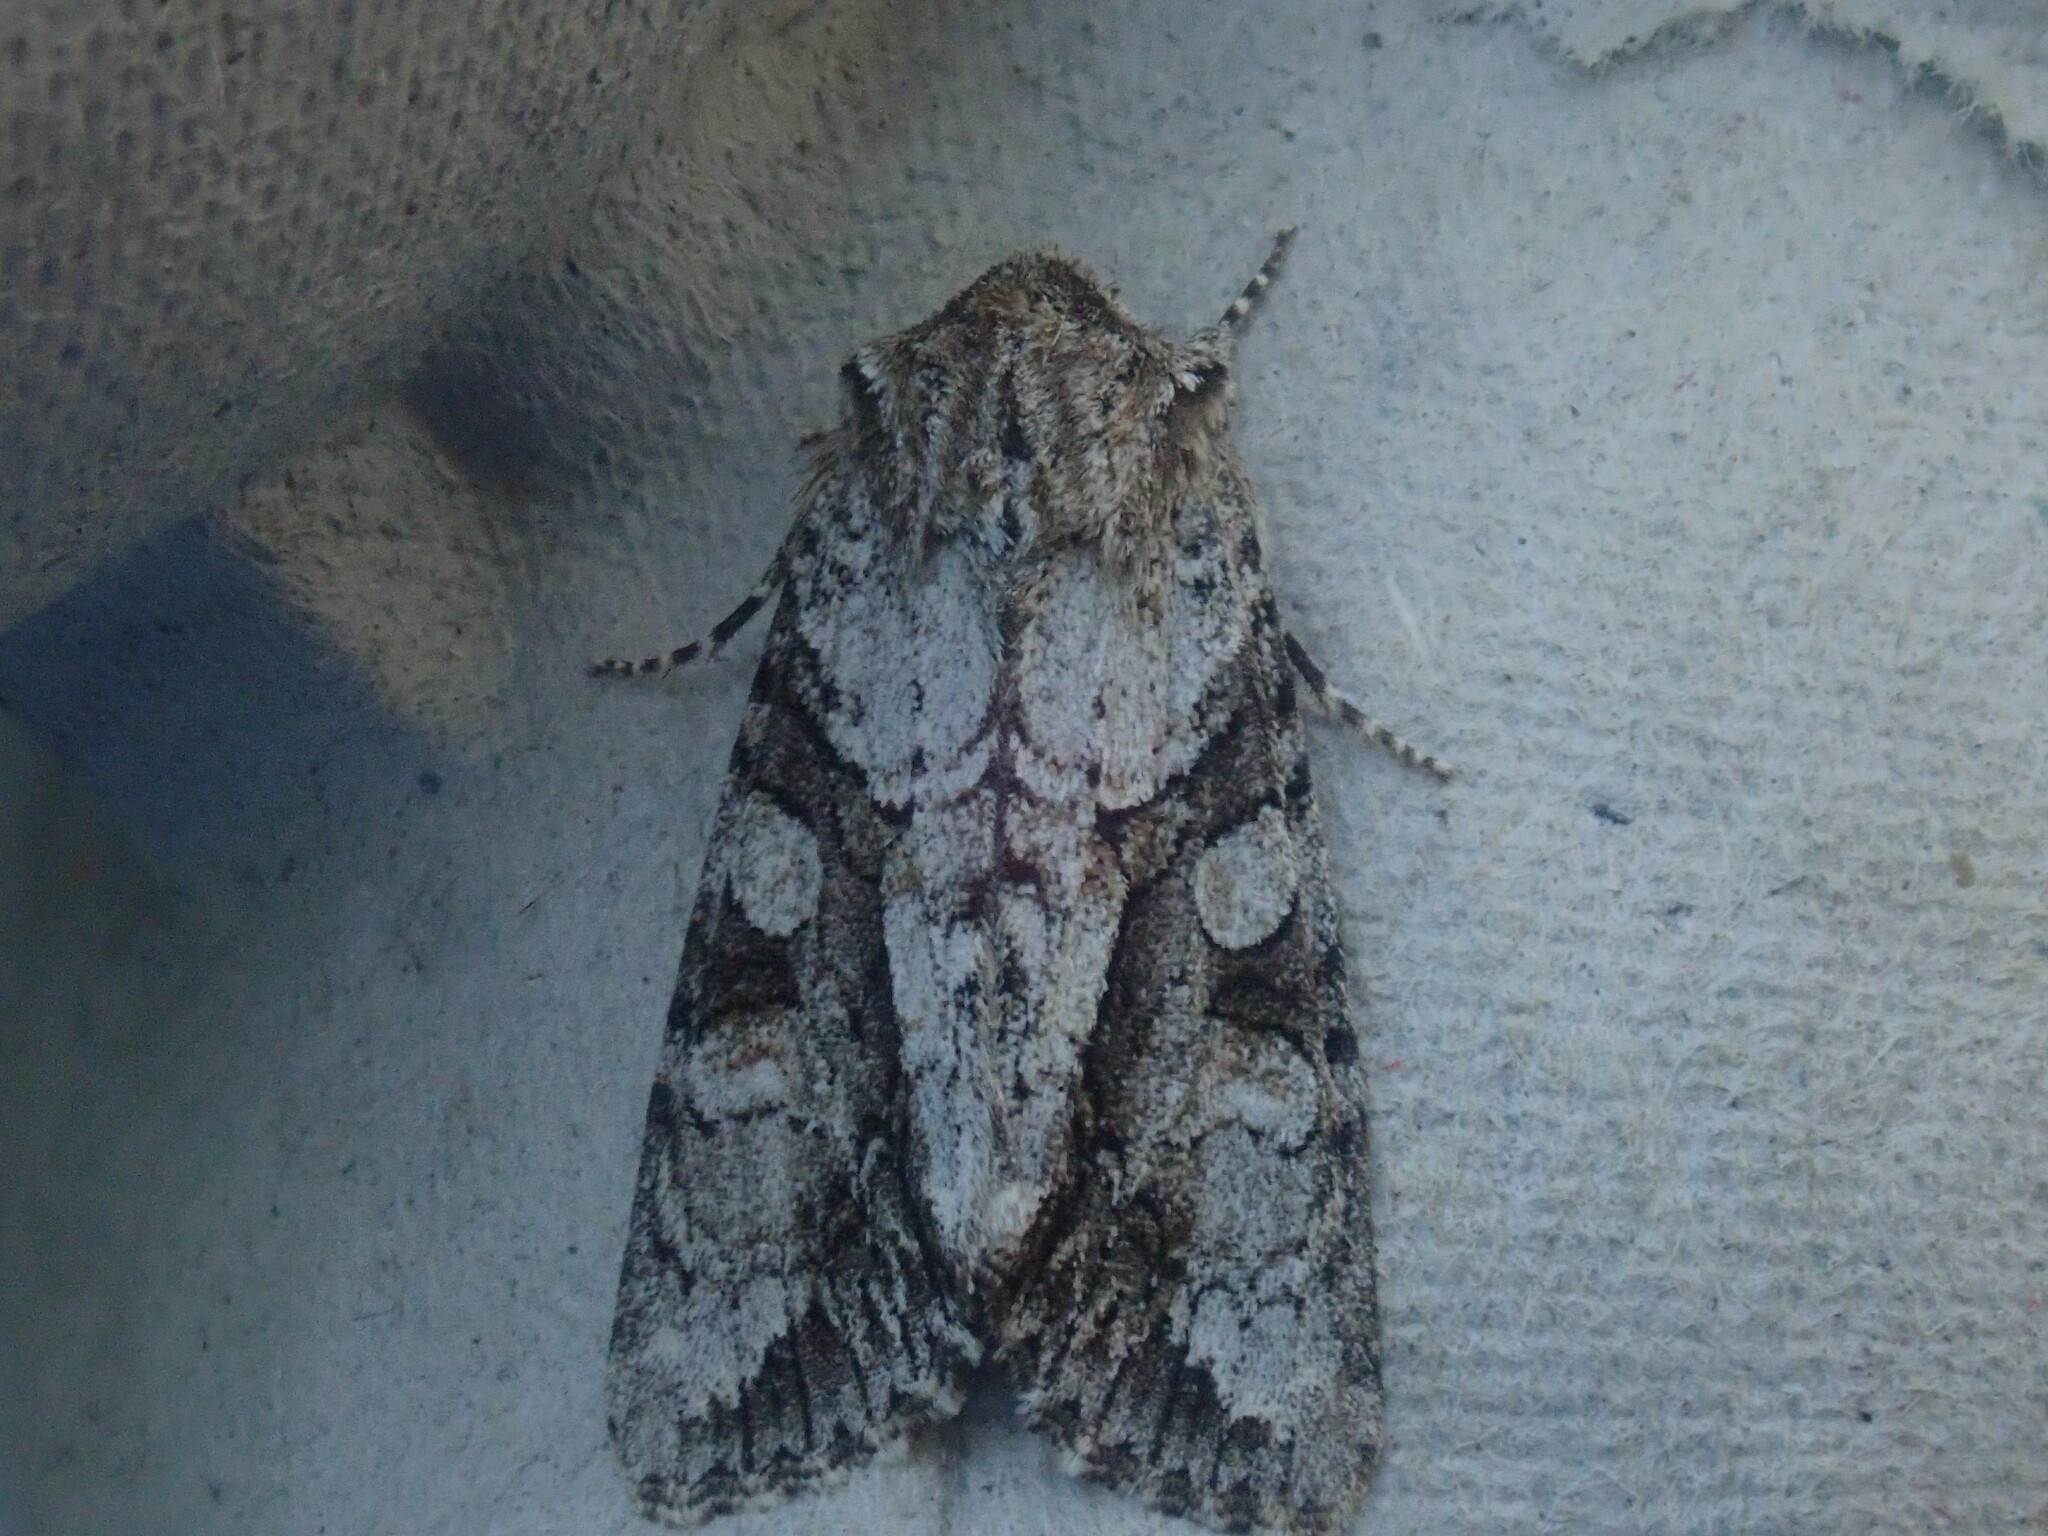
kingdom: Animalia
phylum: Arthropoda
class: Insecta
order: Lepidoptera
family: Noctuidae
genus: Achatia
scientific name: Achatia distincta
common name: Distinct quaker
